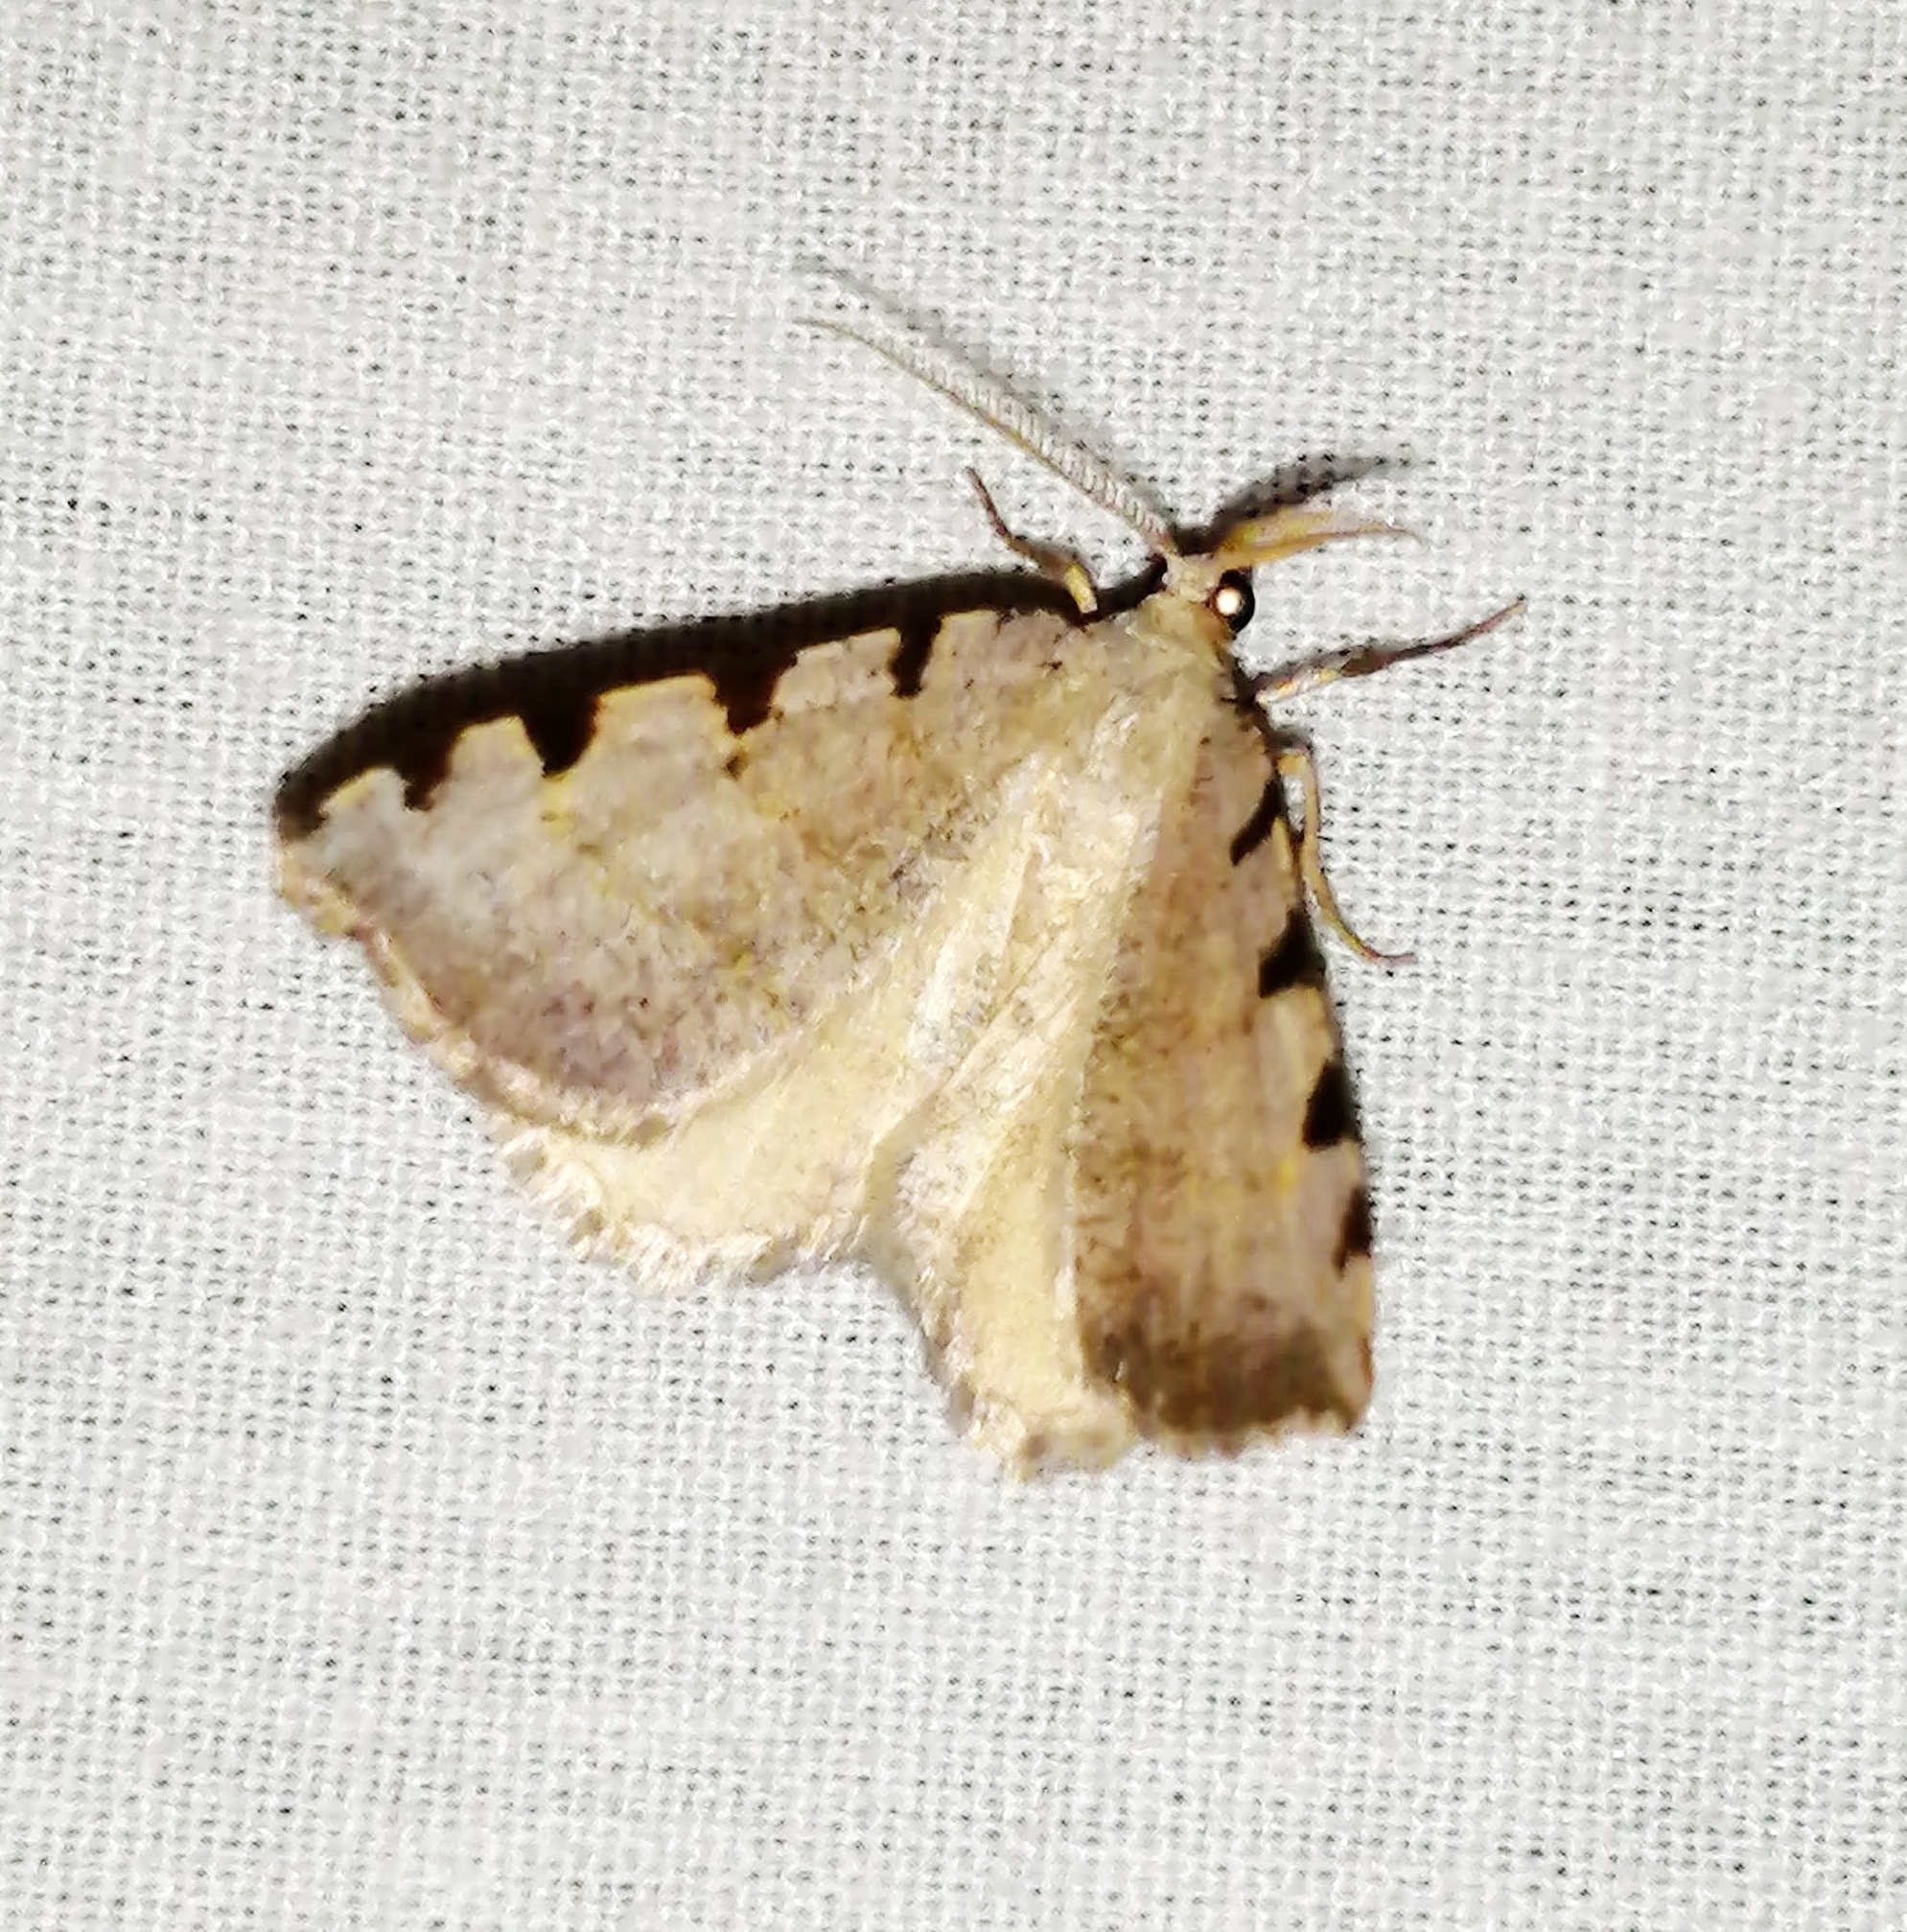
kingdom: Animalia
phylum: Arthropoda
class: Insecta
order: Lepidoptera
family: Geometridae
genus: Macaria
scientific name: Macaria coortaria
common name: Four-spotted granite
